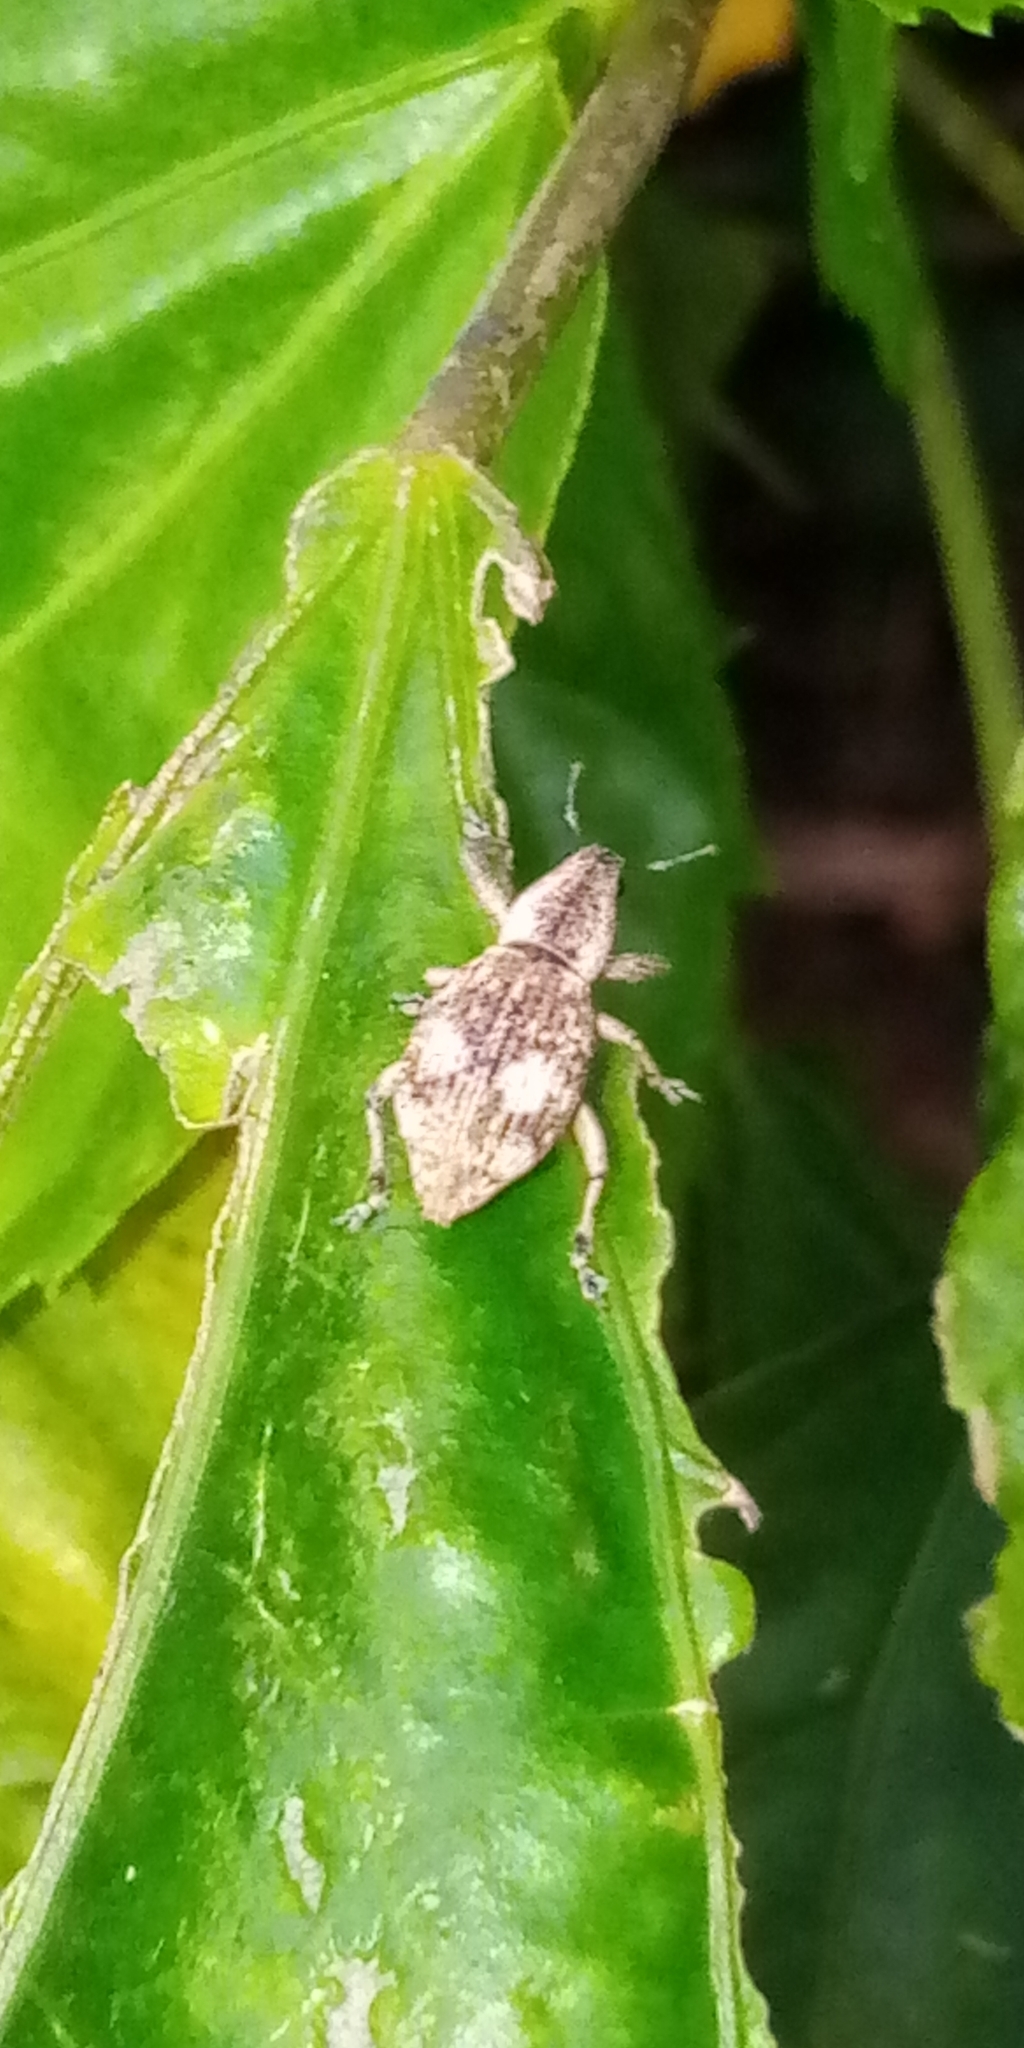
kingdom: Animalia
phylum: Arthropoda
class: Insecta
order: Coleoptera
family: Curculionidae
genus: Sympiezomias
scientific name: Sympiezomias cribricollis
